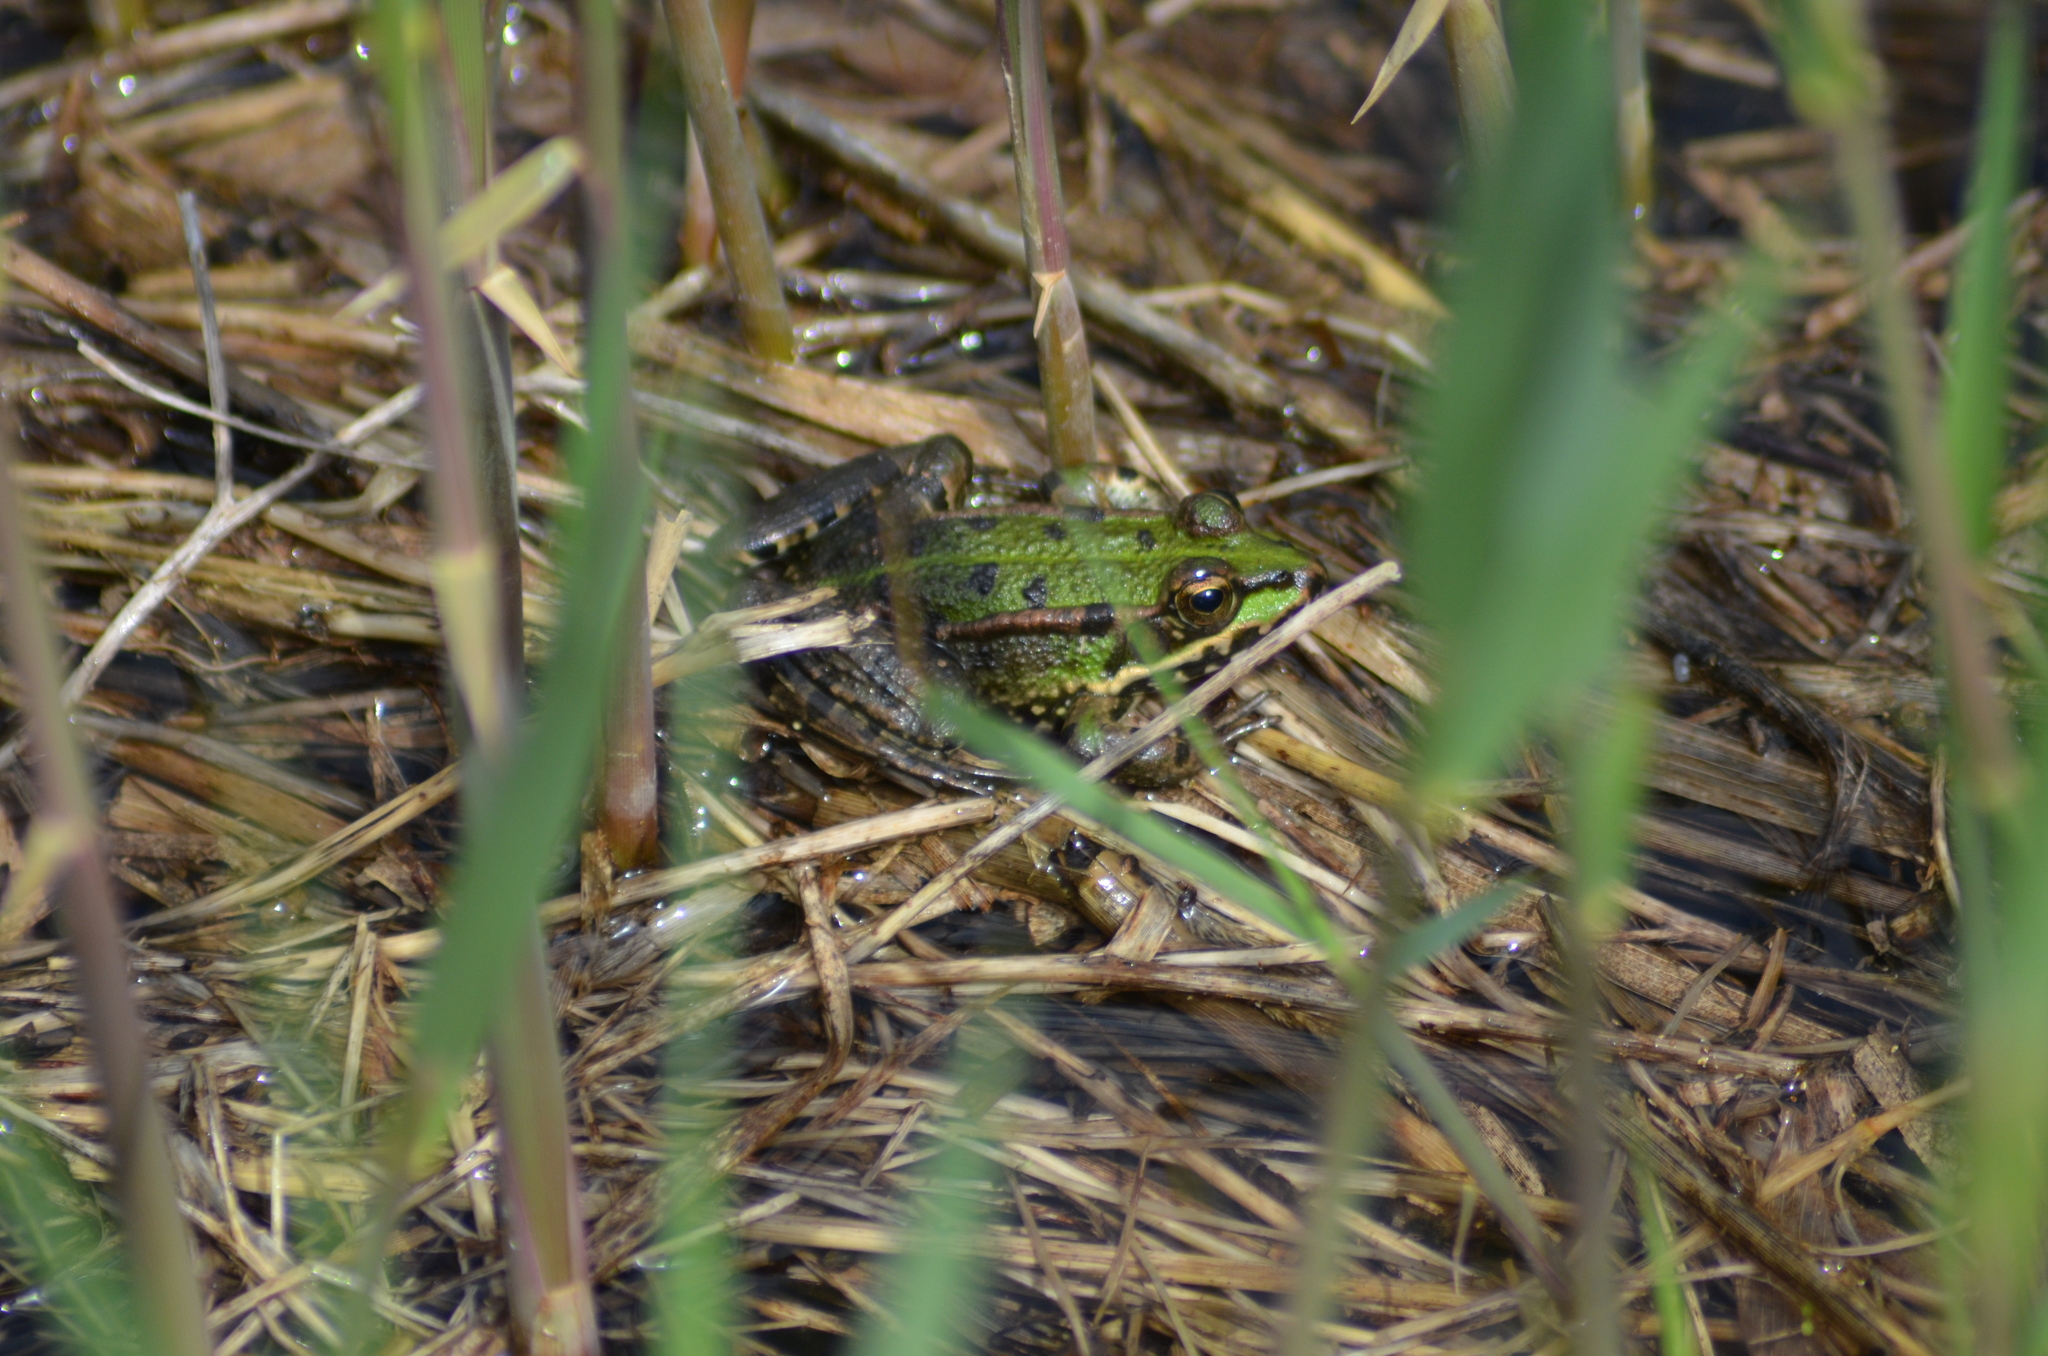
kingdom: Animalia
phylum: Chordata
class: Amphibia
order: Anura
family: Ranidae
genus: Pelophylax
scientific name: Pelophylax perezi
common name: Perez's frog
